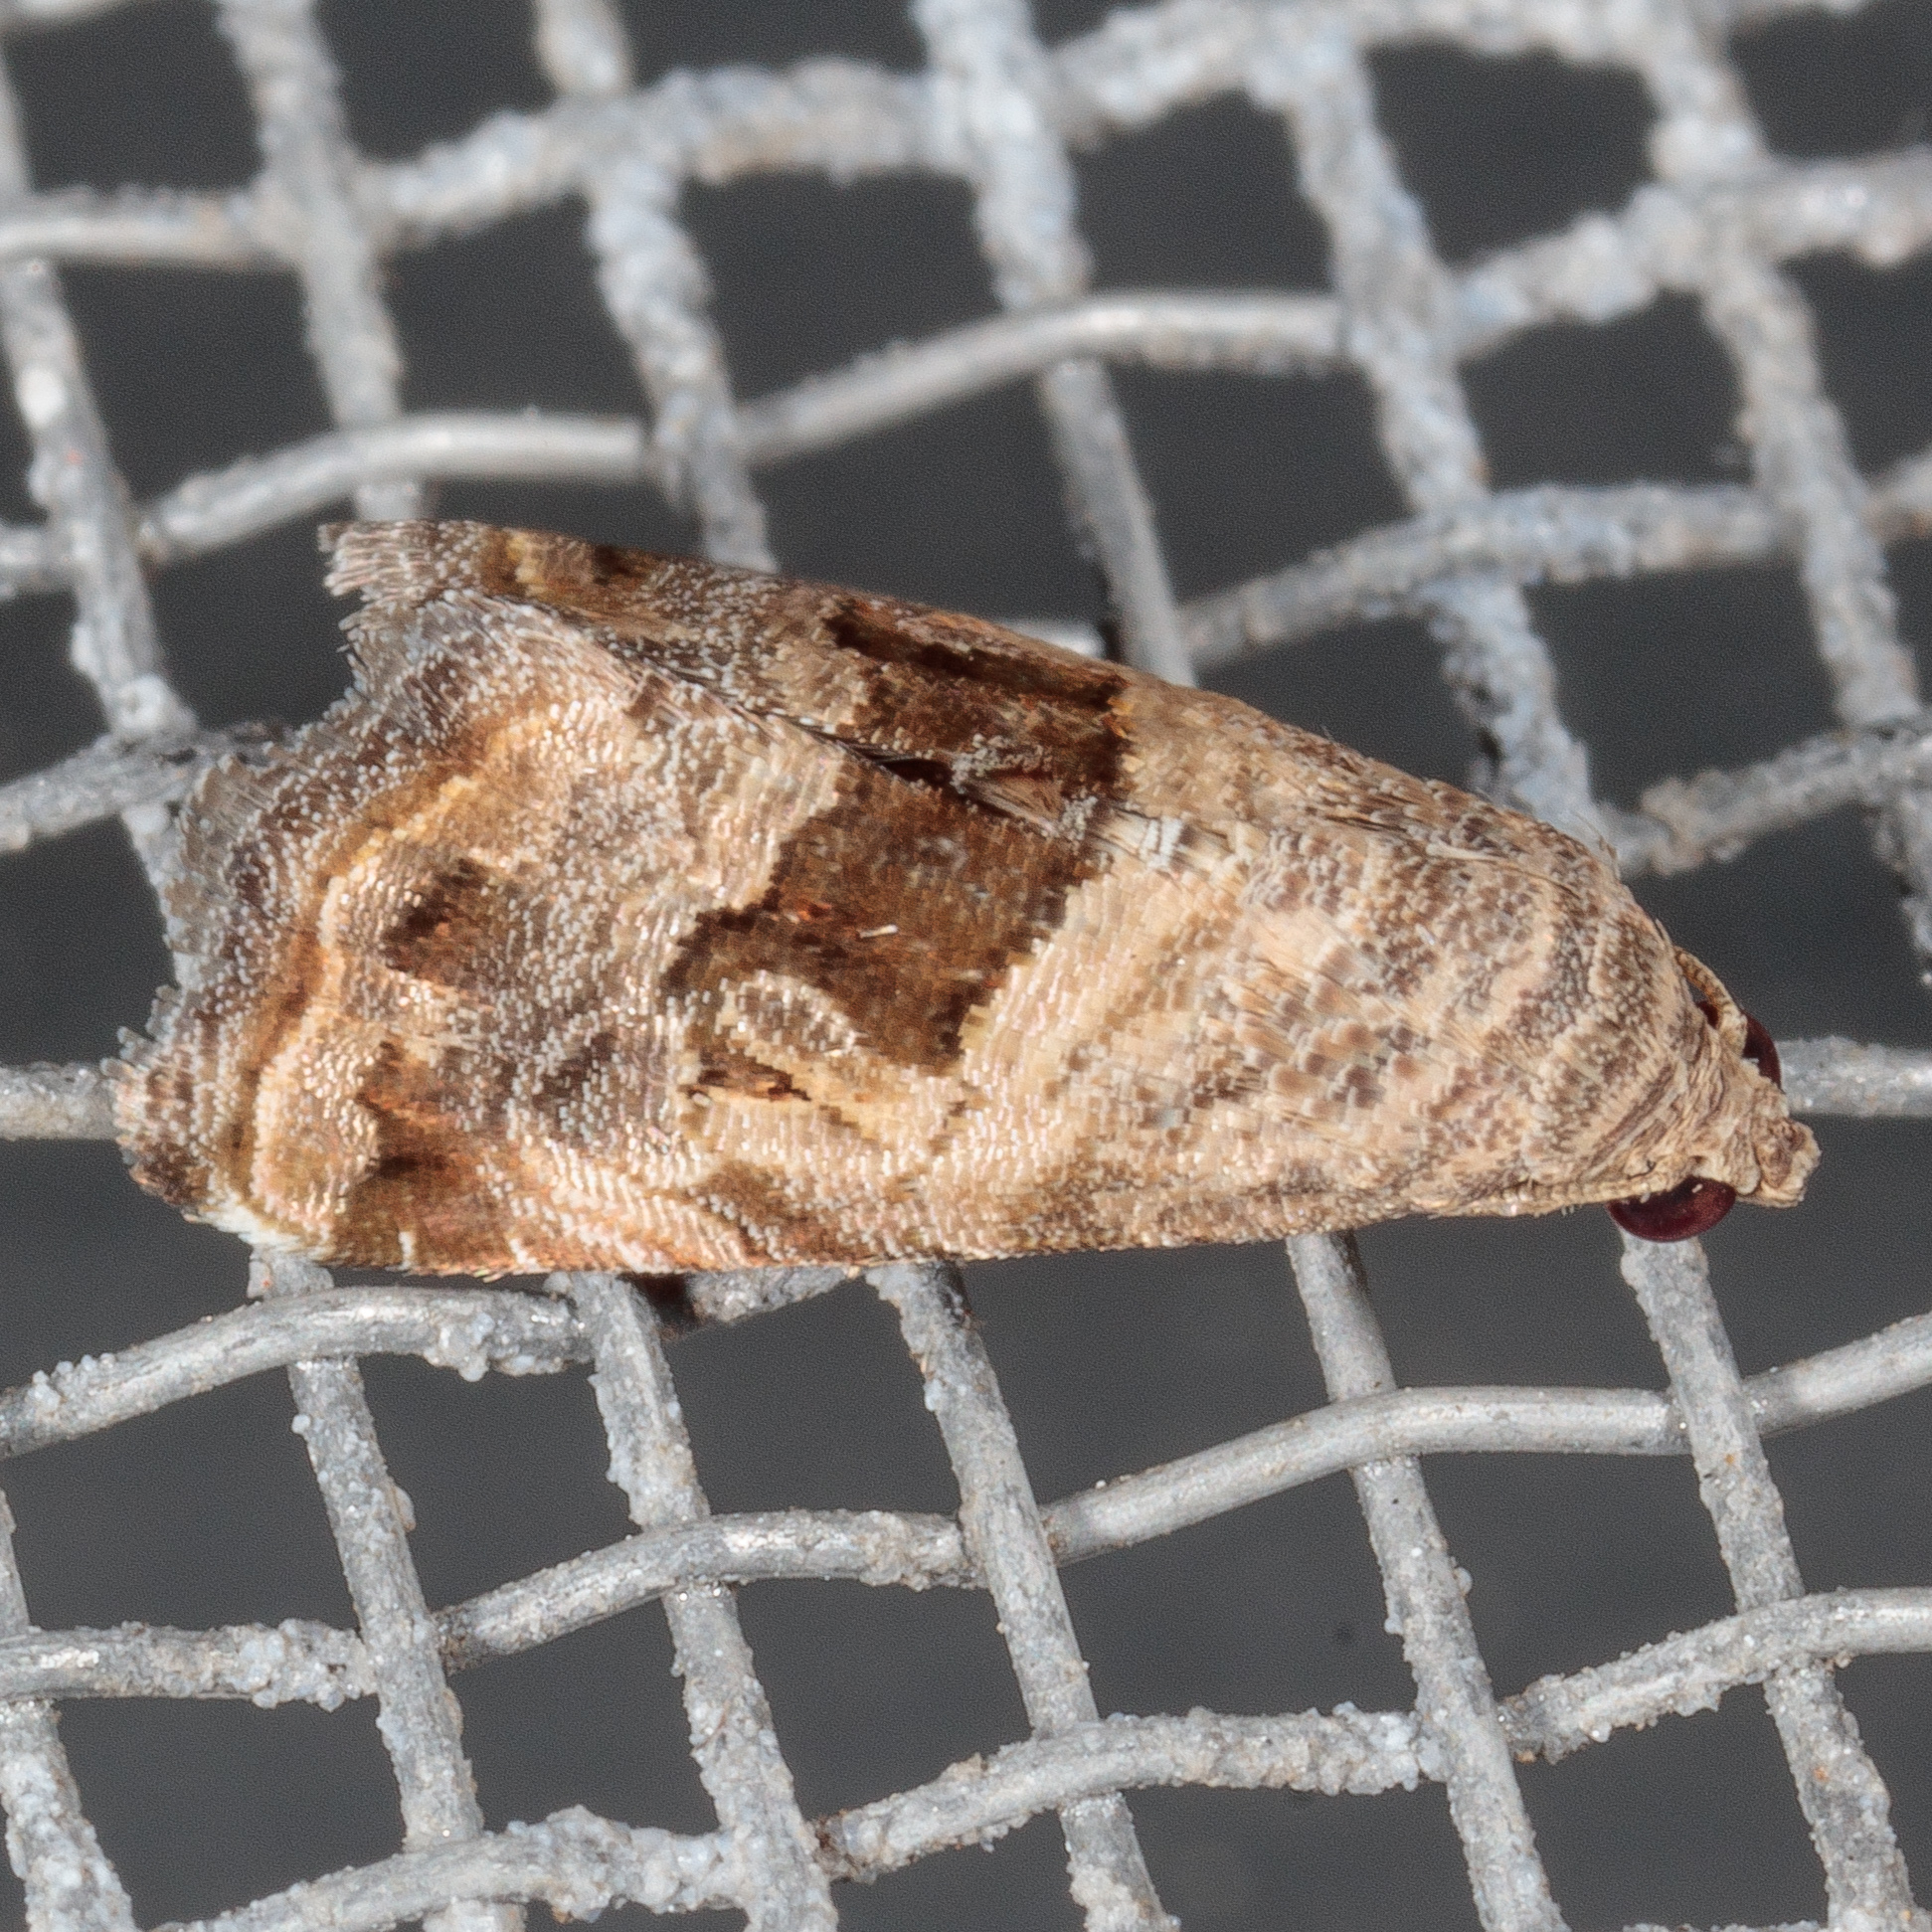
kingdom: Animalia
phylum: Arthropoda
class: Insecta
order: Lepidoptera
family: Noctuidae
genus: Tripudia
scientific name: Tripudia quadrifera
